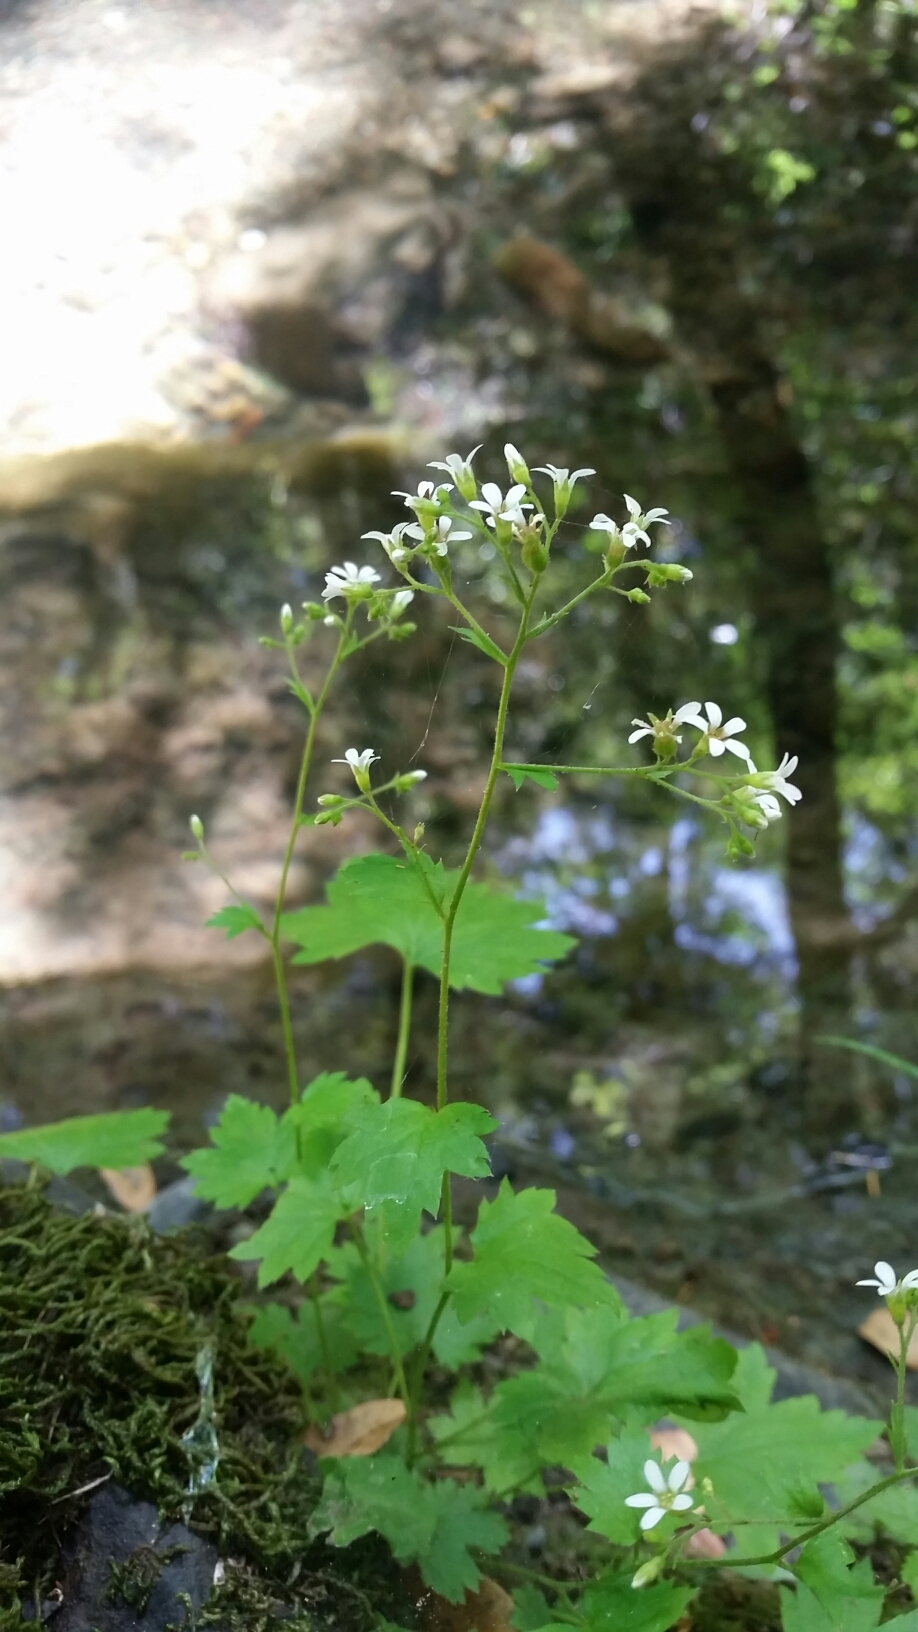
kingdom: Plantae
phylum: Tracheophyta
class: Magnoliopsida
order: Saxifragales
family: Saxifragaceae
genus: Boykinia
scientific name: Boykinia occidentalis
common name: Coast boykinia
